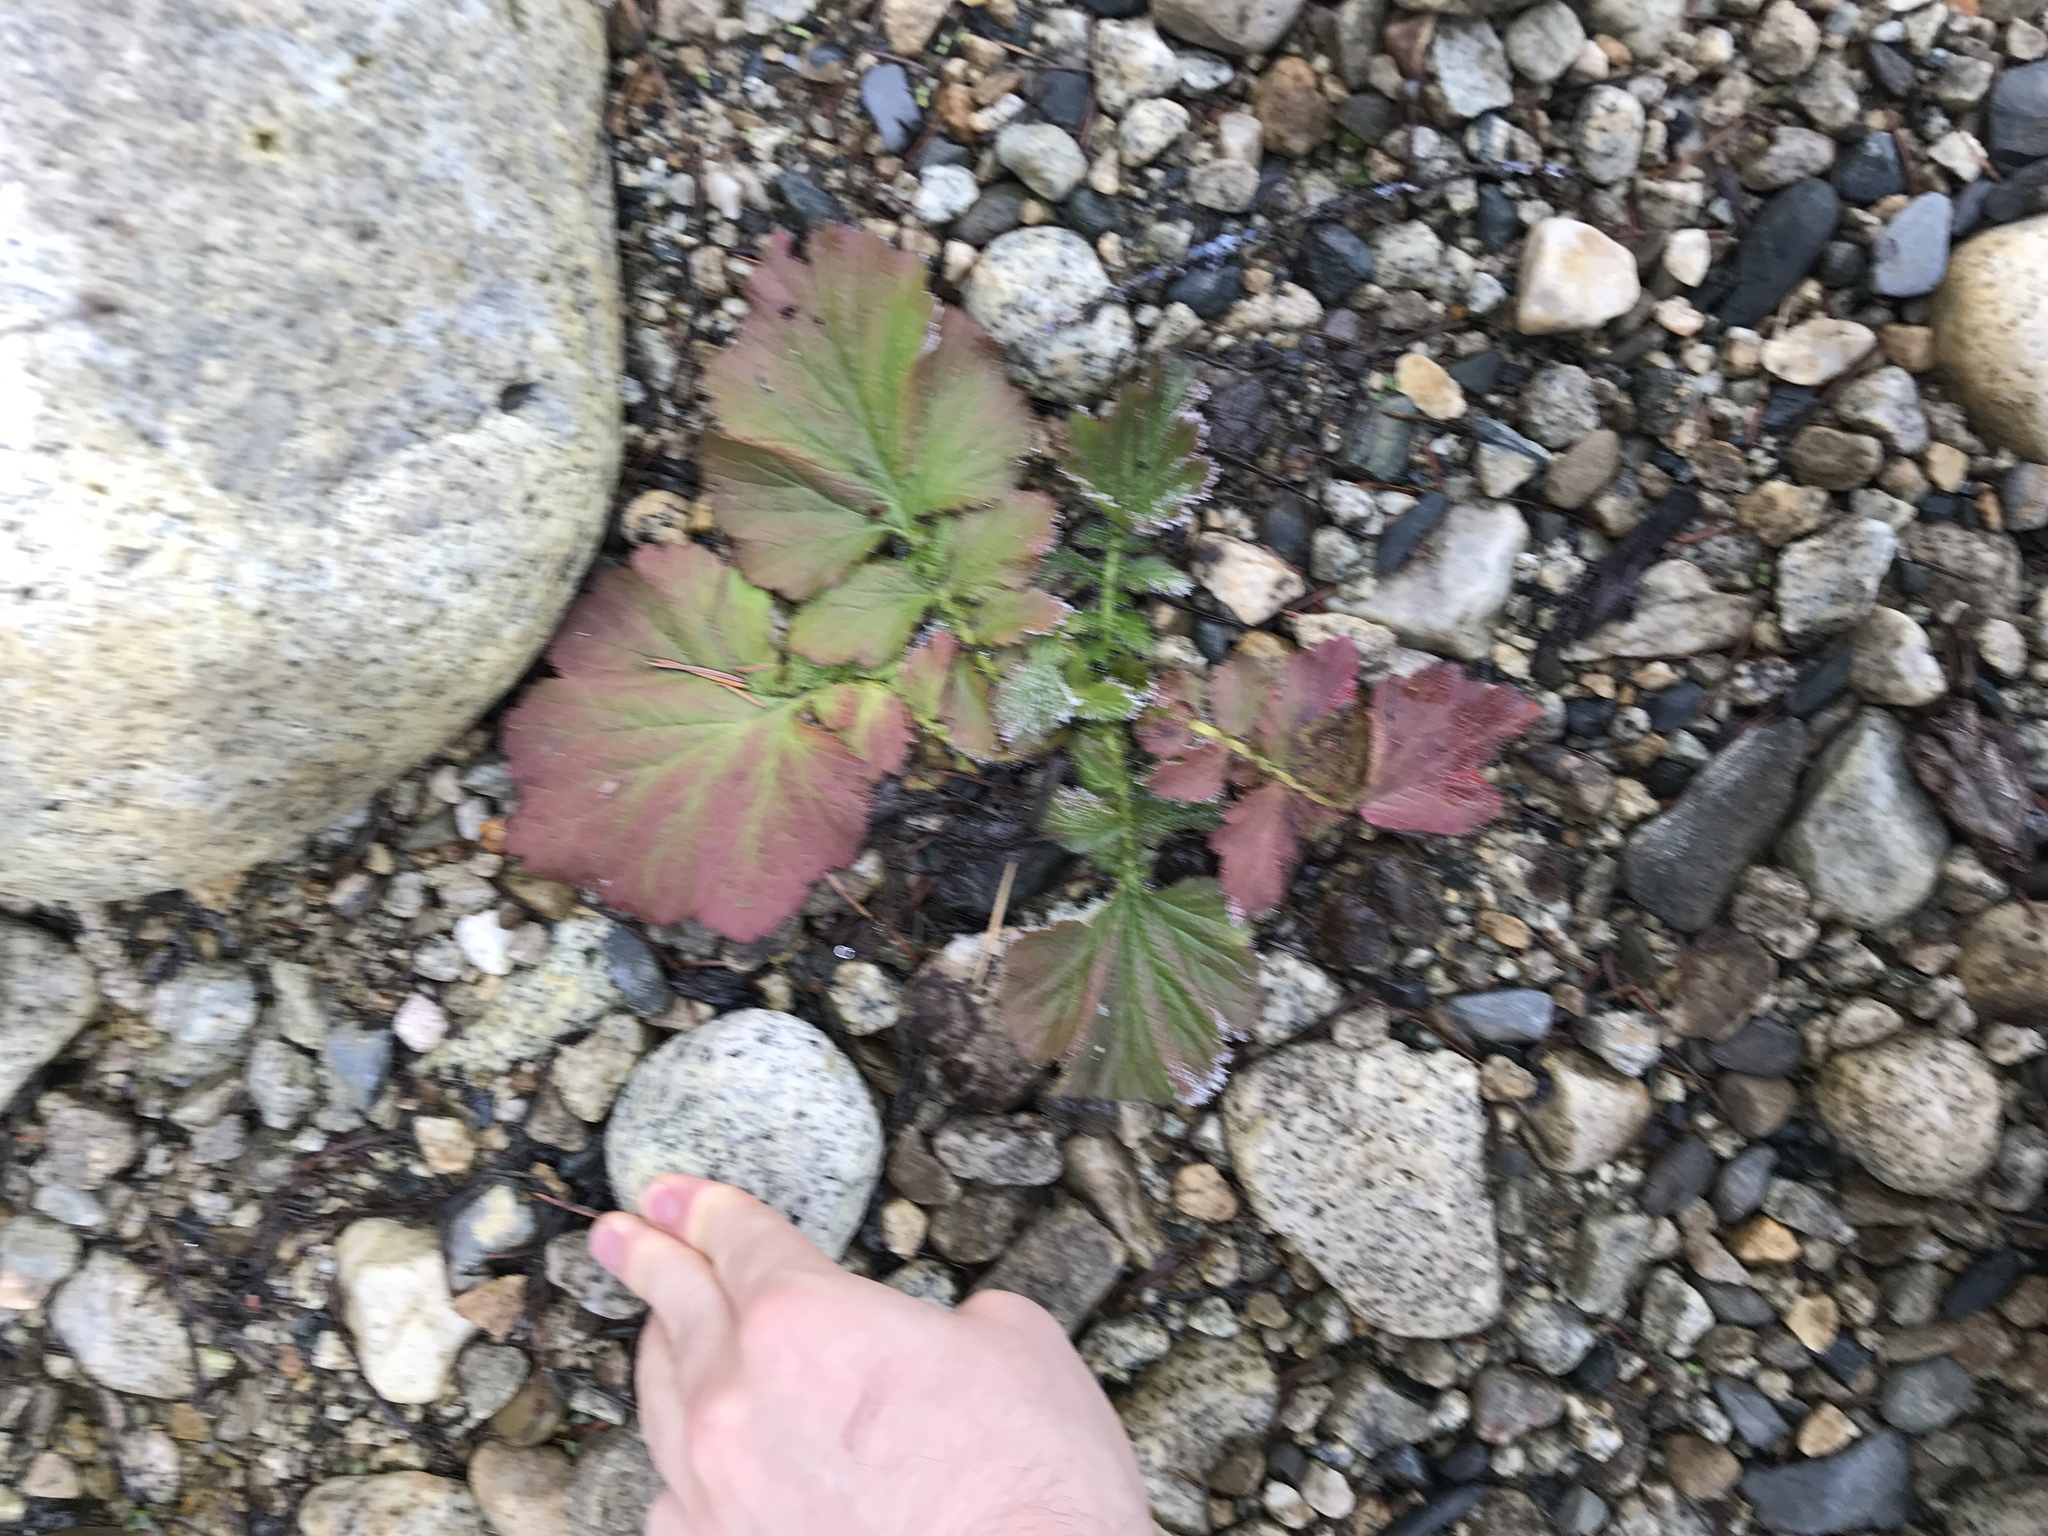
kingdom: Plantae
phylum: Tracheophyta
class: Magnoliopsida
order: Rosales
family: Rosaceae
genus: Geum
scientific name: Geum macrophyllum
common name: Large-leaved avens
